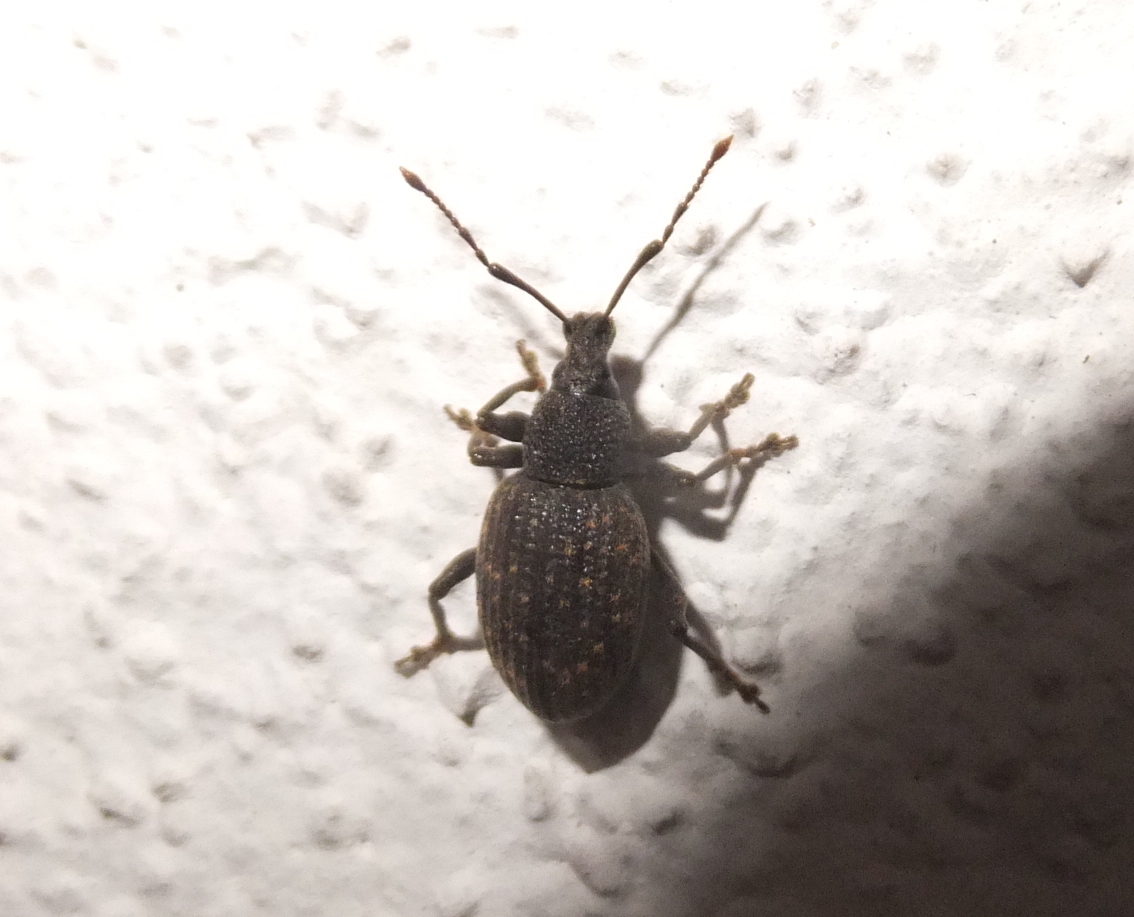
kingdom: Animalia
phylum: Arthropoda
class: Insecta
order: Coleoptera
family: Curculionidae
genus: Otiorhynchus
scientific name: Otiorhynchus sulcatus
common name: Black vine weevil
